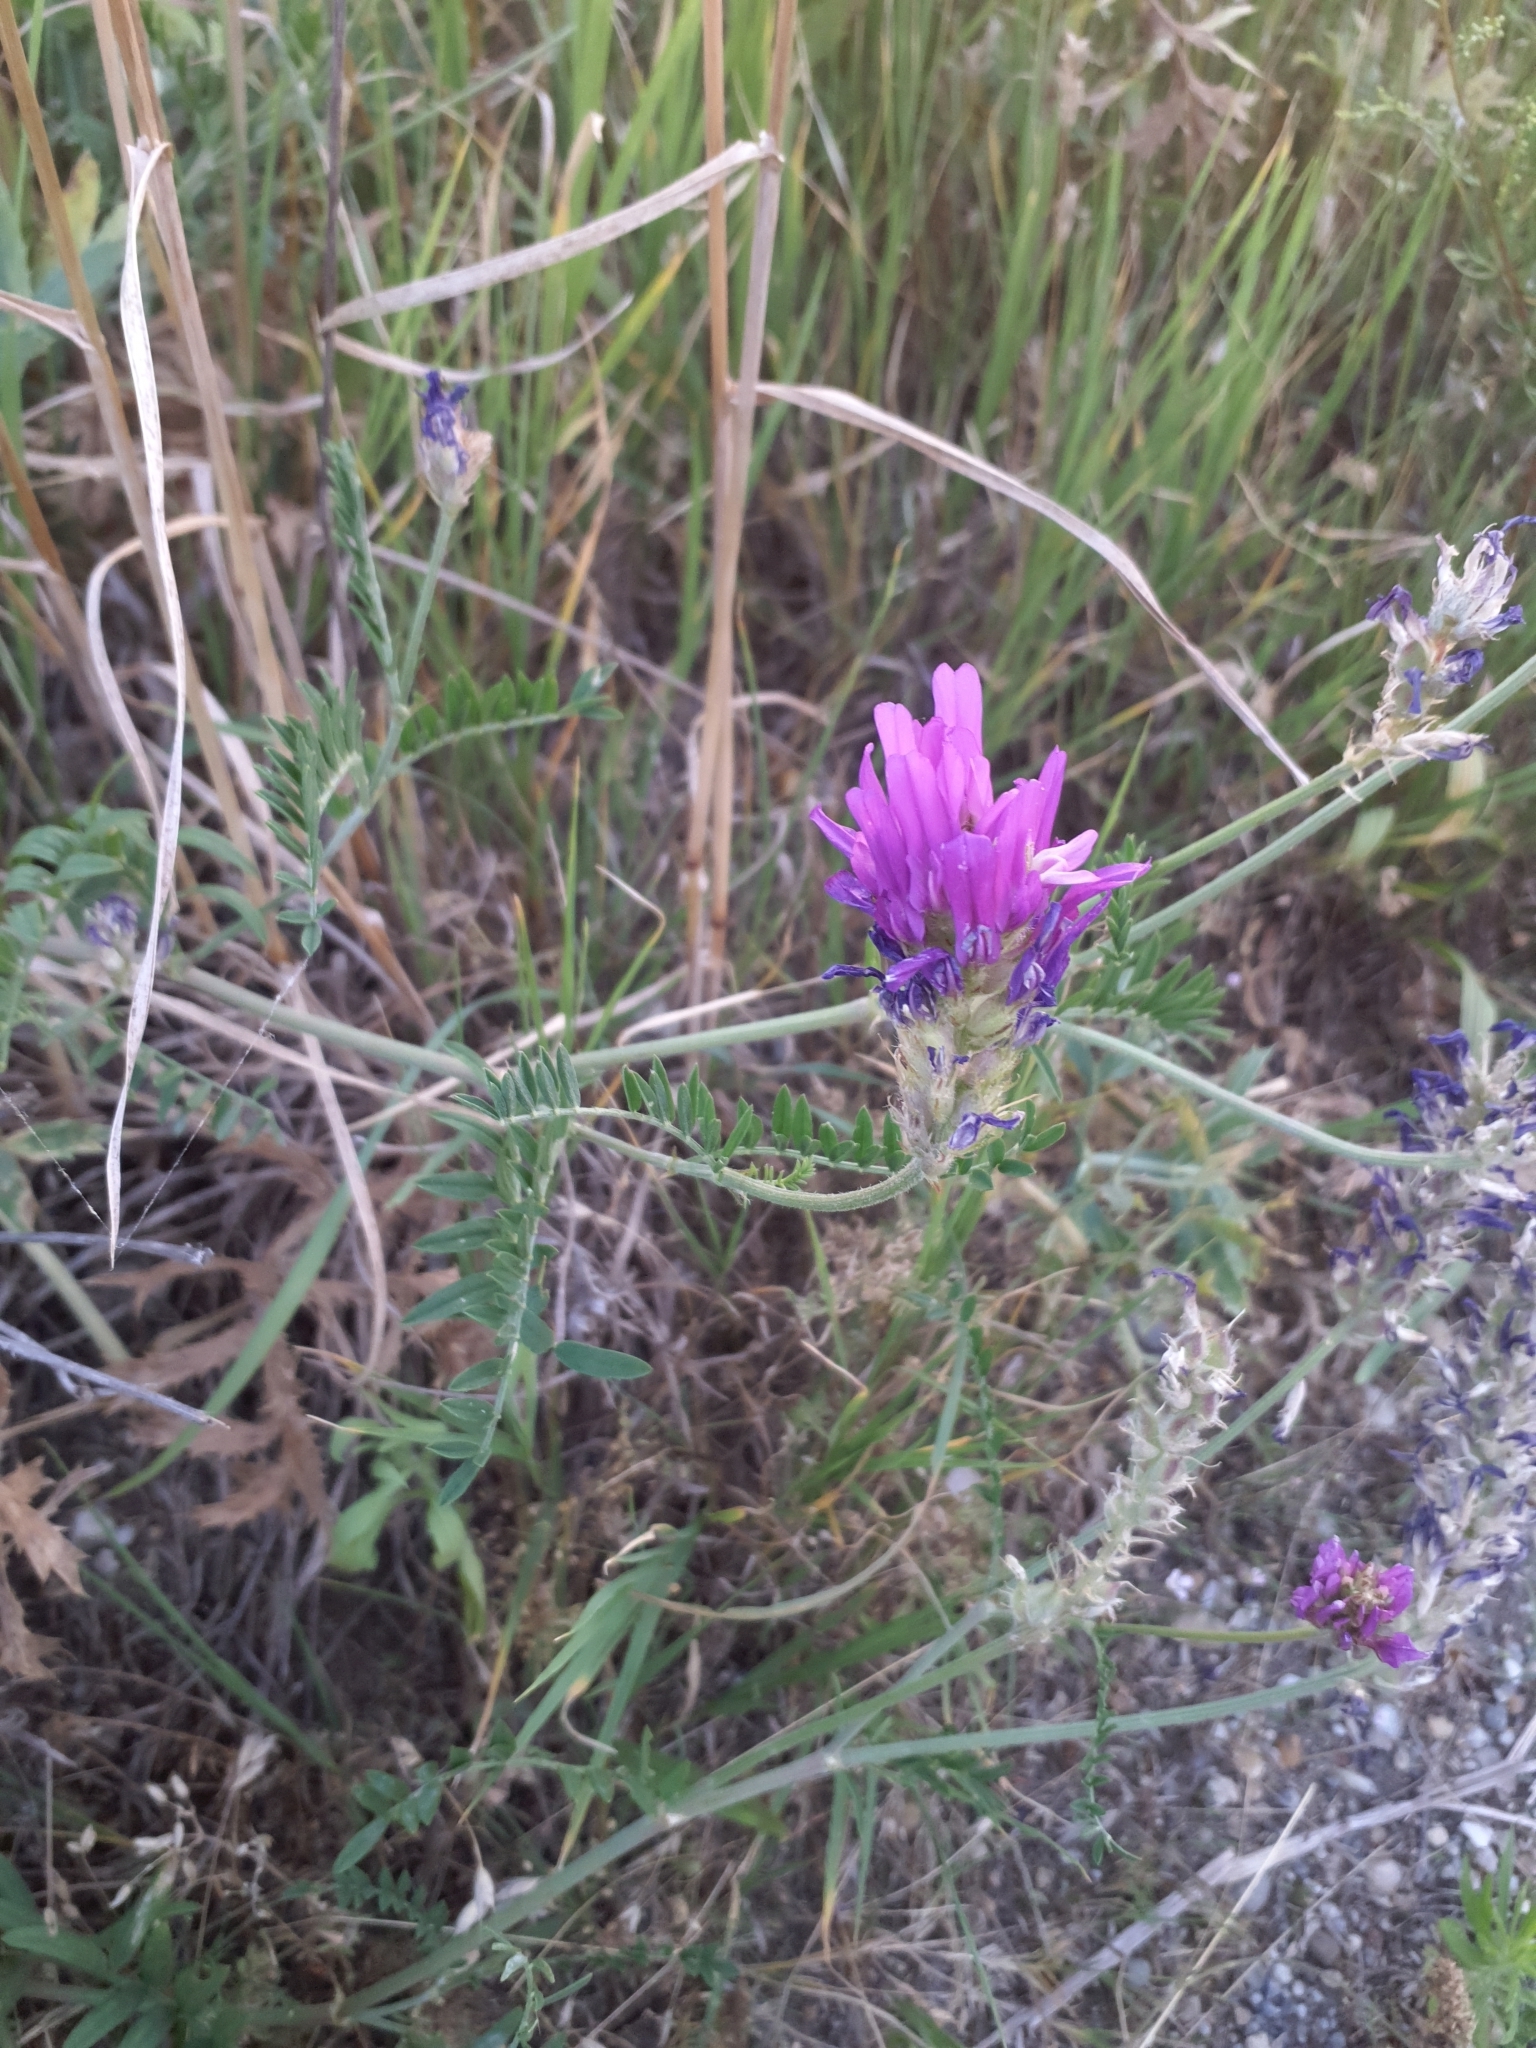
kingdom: Plantae
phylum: Tracheophyta
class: Magnoliopsida
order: Fabales
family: Fabaceae
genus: Astragalus
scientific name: Astragalus onobrychis
